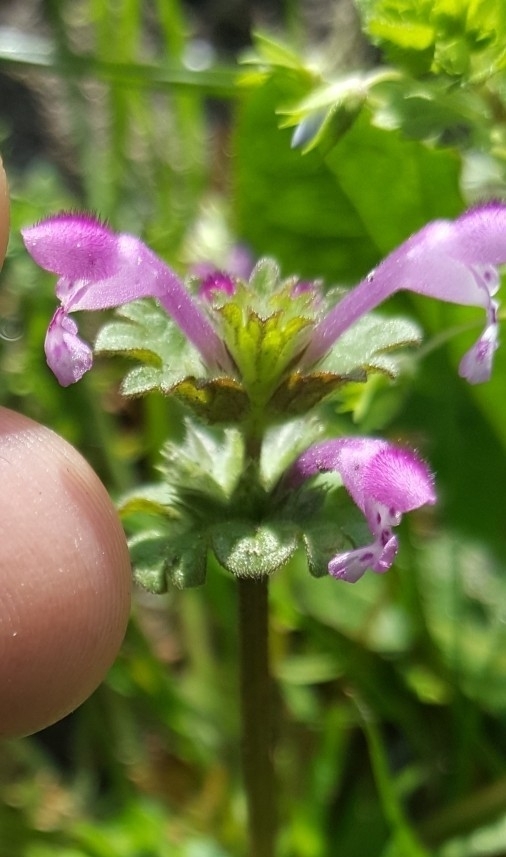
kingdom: Plantae
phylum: Tracheophyta
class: Magnoliopsida
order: Lamiales
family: Lamiaceae
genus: Lamium
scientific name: Lamium amplexicaule
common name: Henbit dead-nettle
